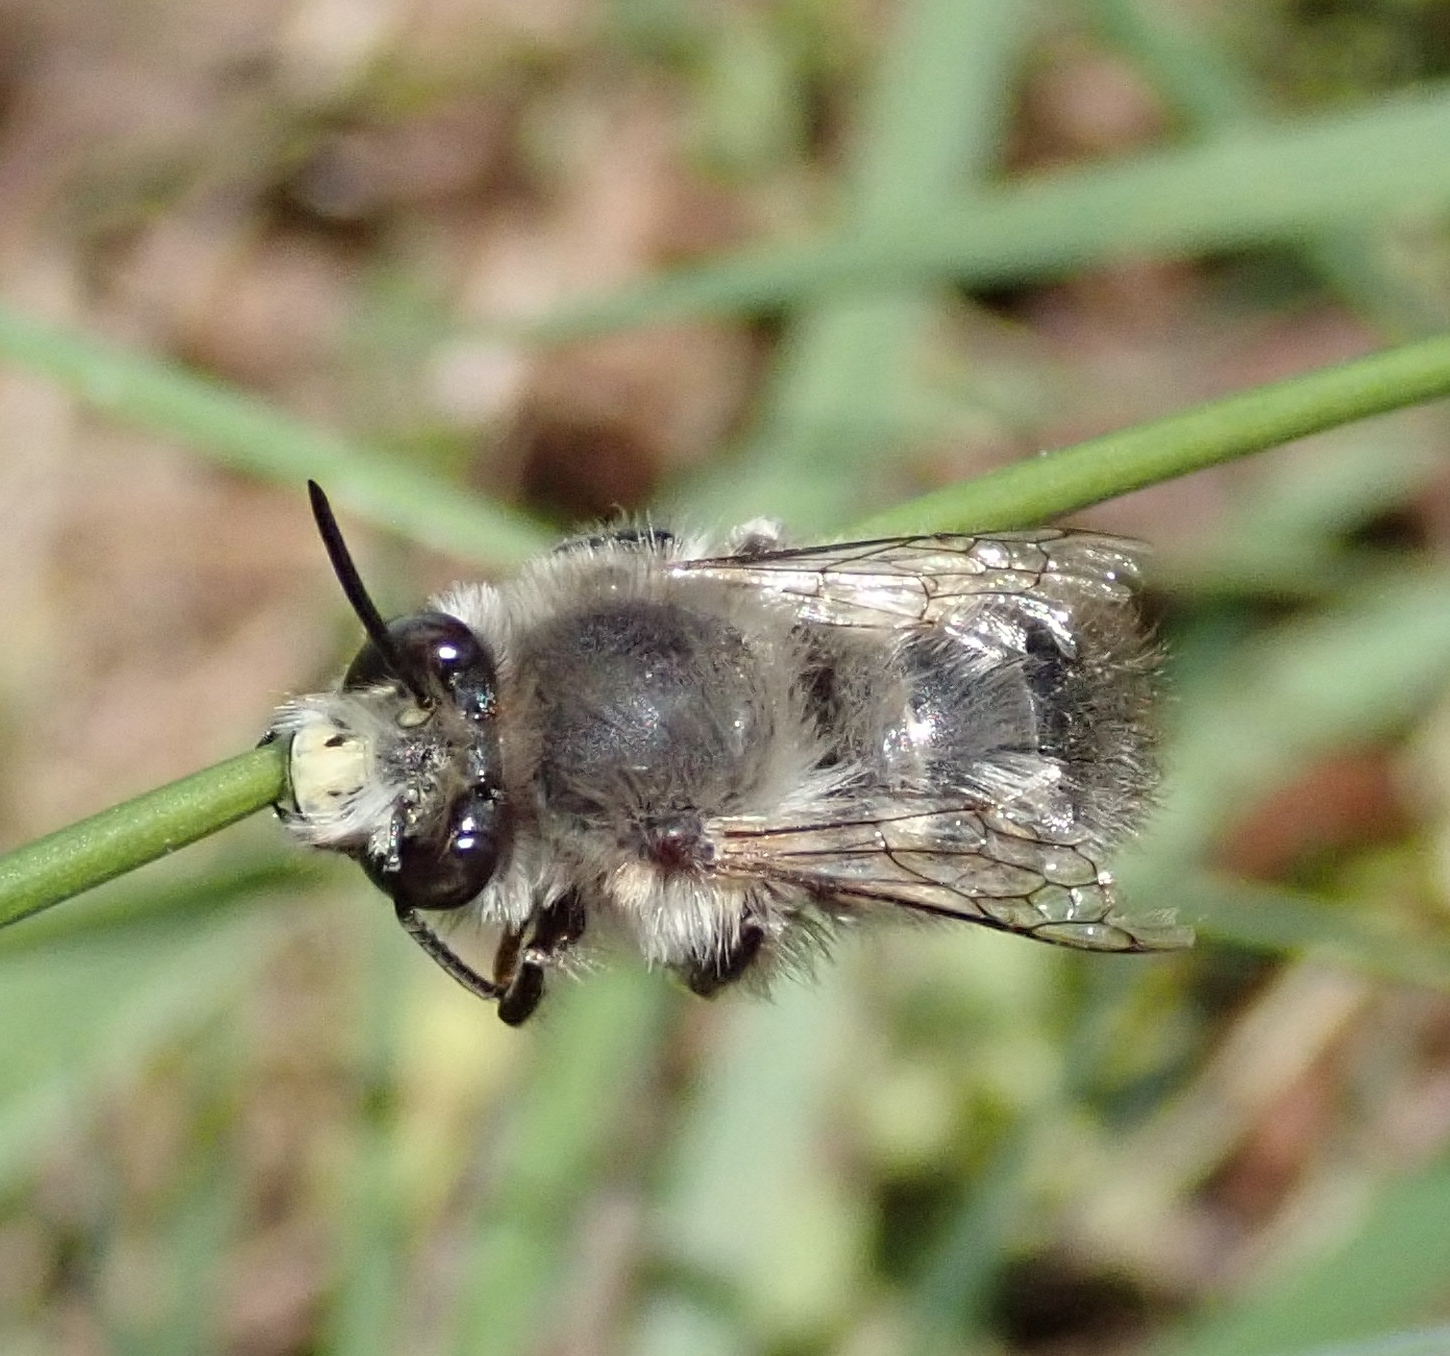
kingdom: Animalia
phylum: Arthropoda
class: Insecta
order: Hymenoptera
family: Apidae
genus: Anthophora
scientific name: Anthophora plumipes
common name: Hairy-footed flower bee
